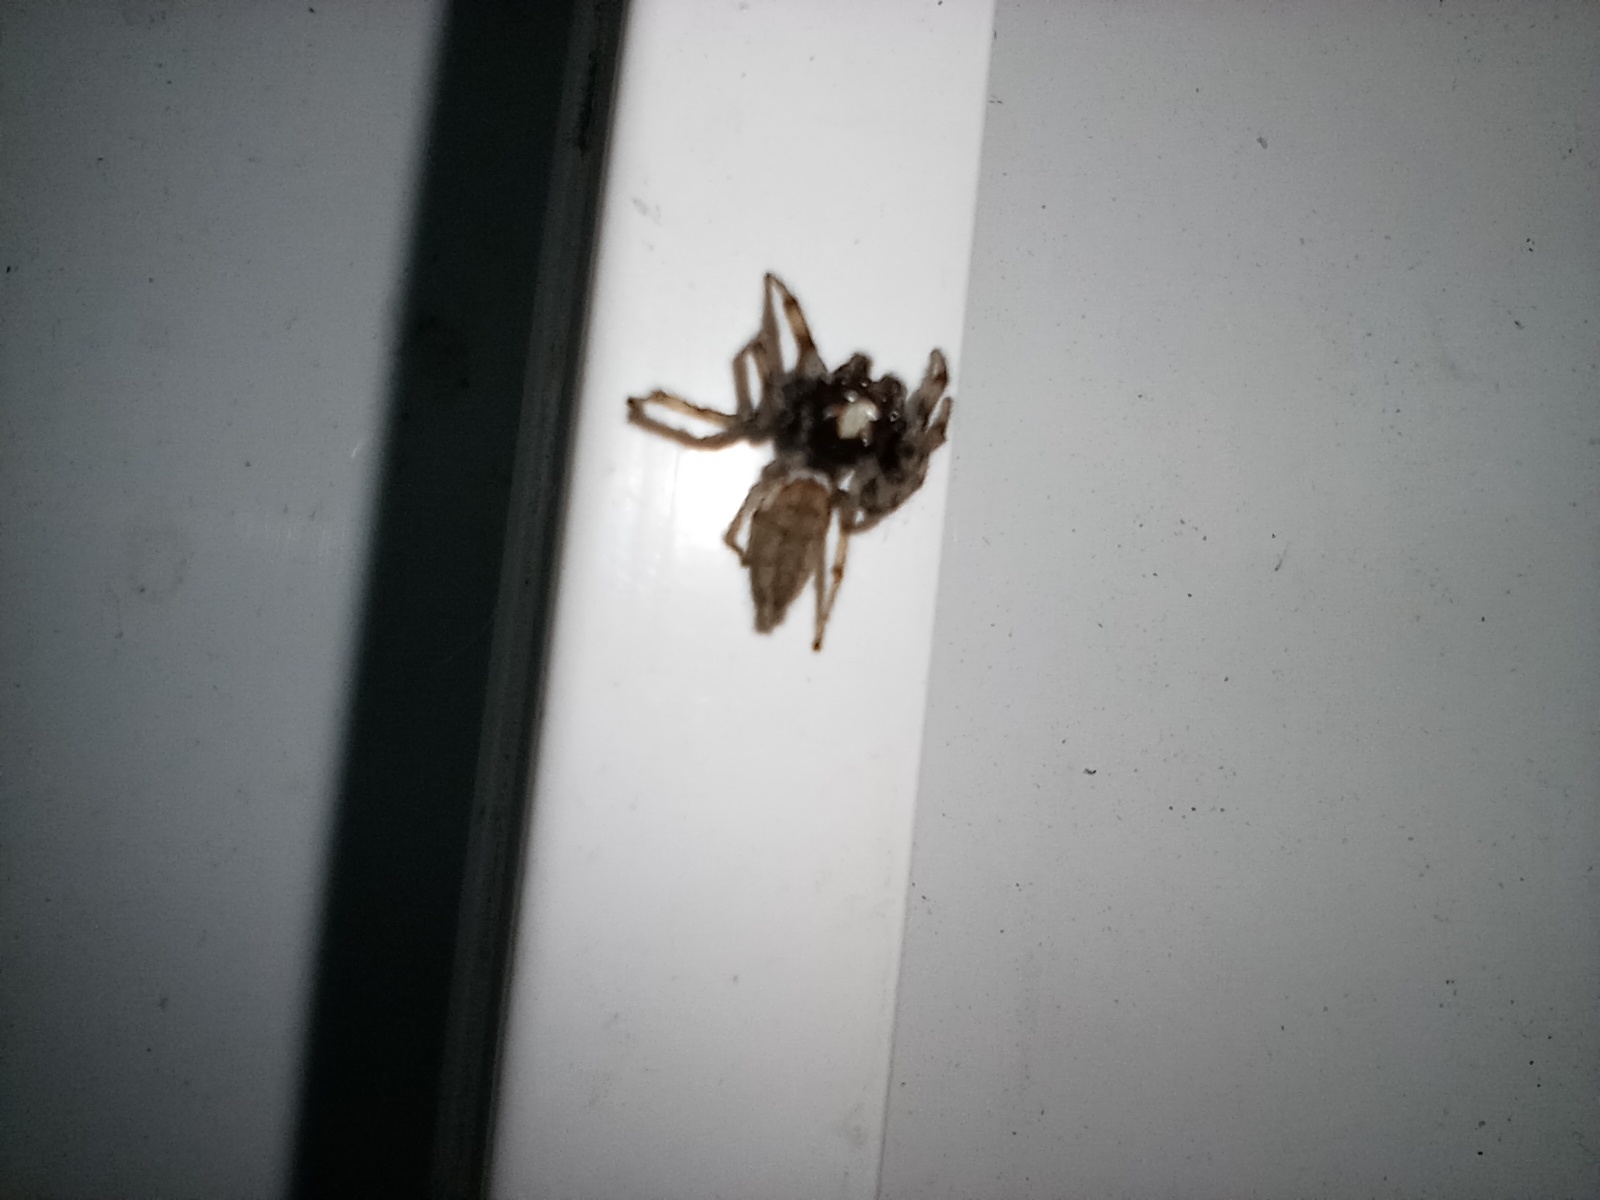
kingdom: Animalia
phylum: Arthropoda
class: Arachnida
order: Araneae
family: Salticidae
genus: Colonus
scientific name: Colonus hesperus
